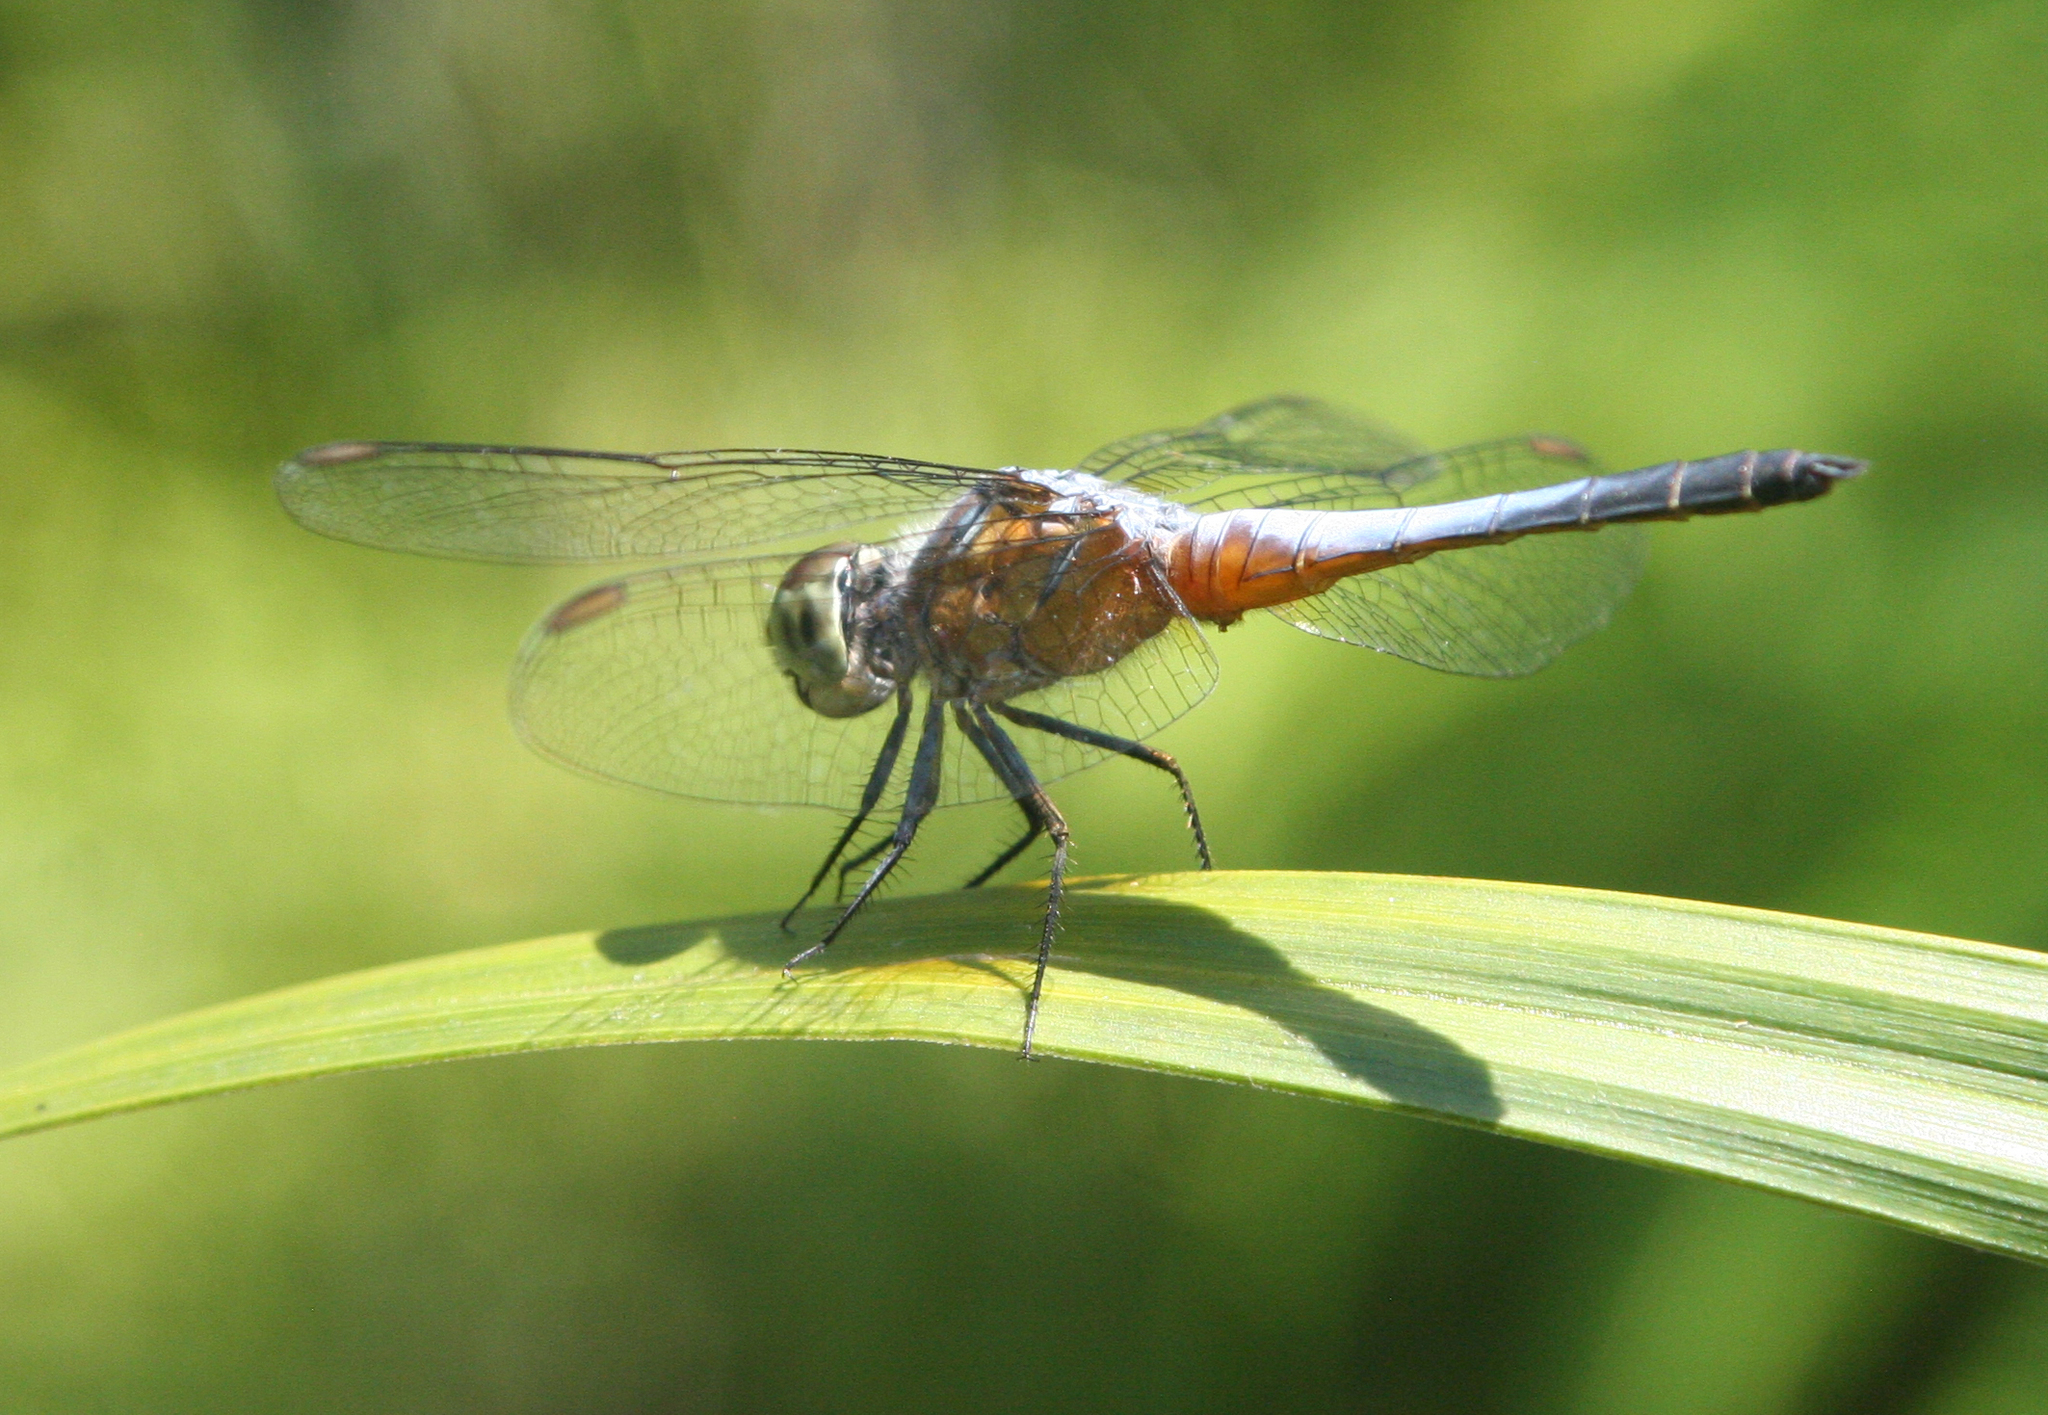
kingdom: Animalia
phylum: Arthropoda
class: Insecta
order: Odonata
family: Libellulidae
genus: Brachydiplax
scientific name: Brachydiplax chalybea
